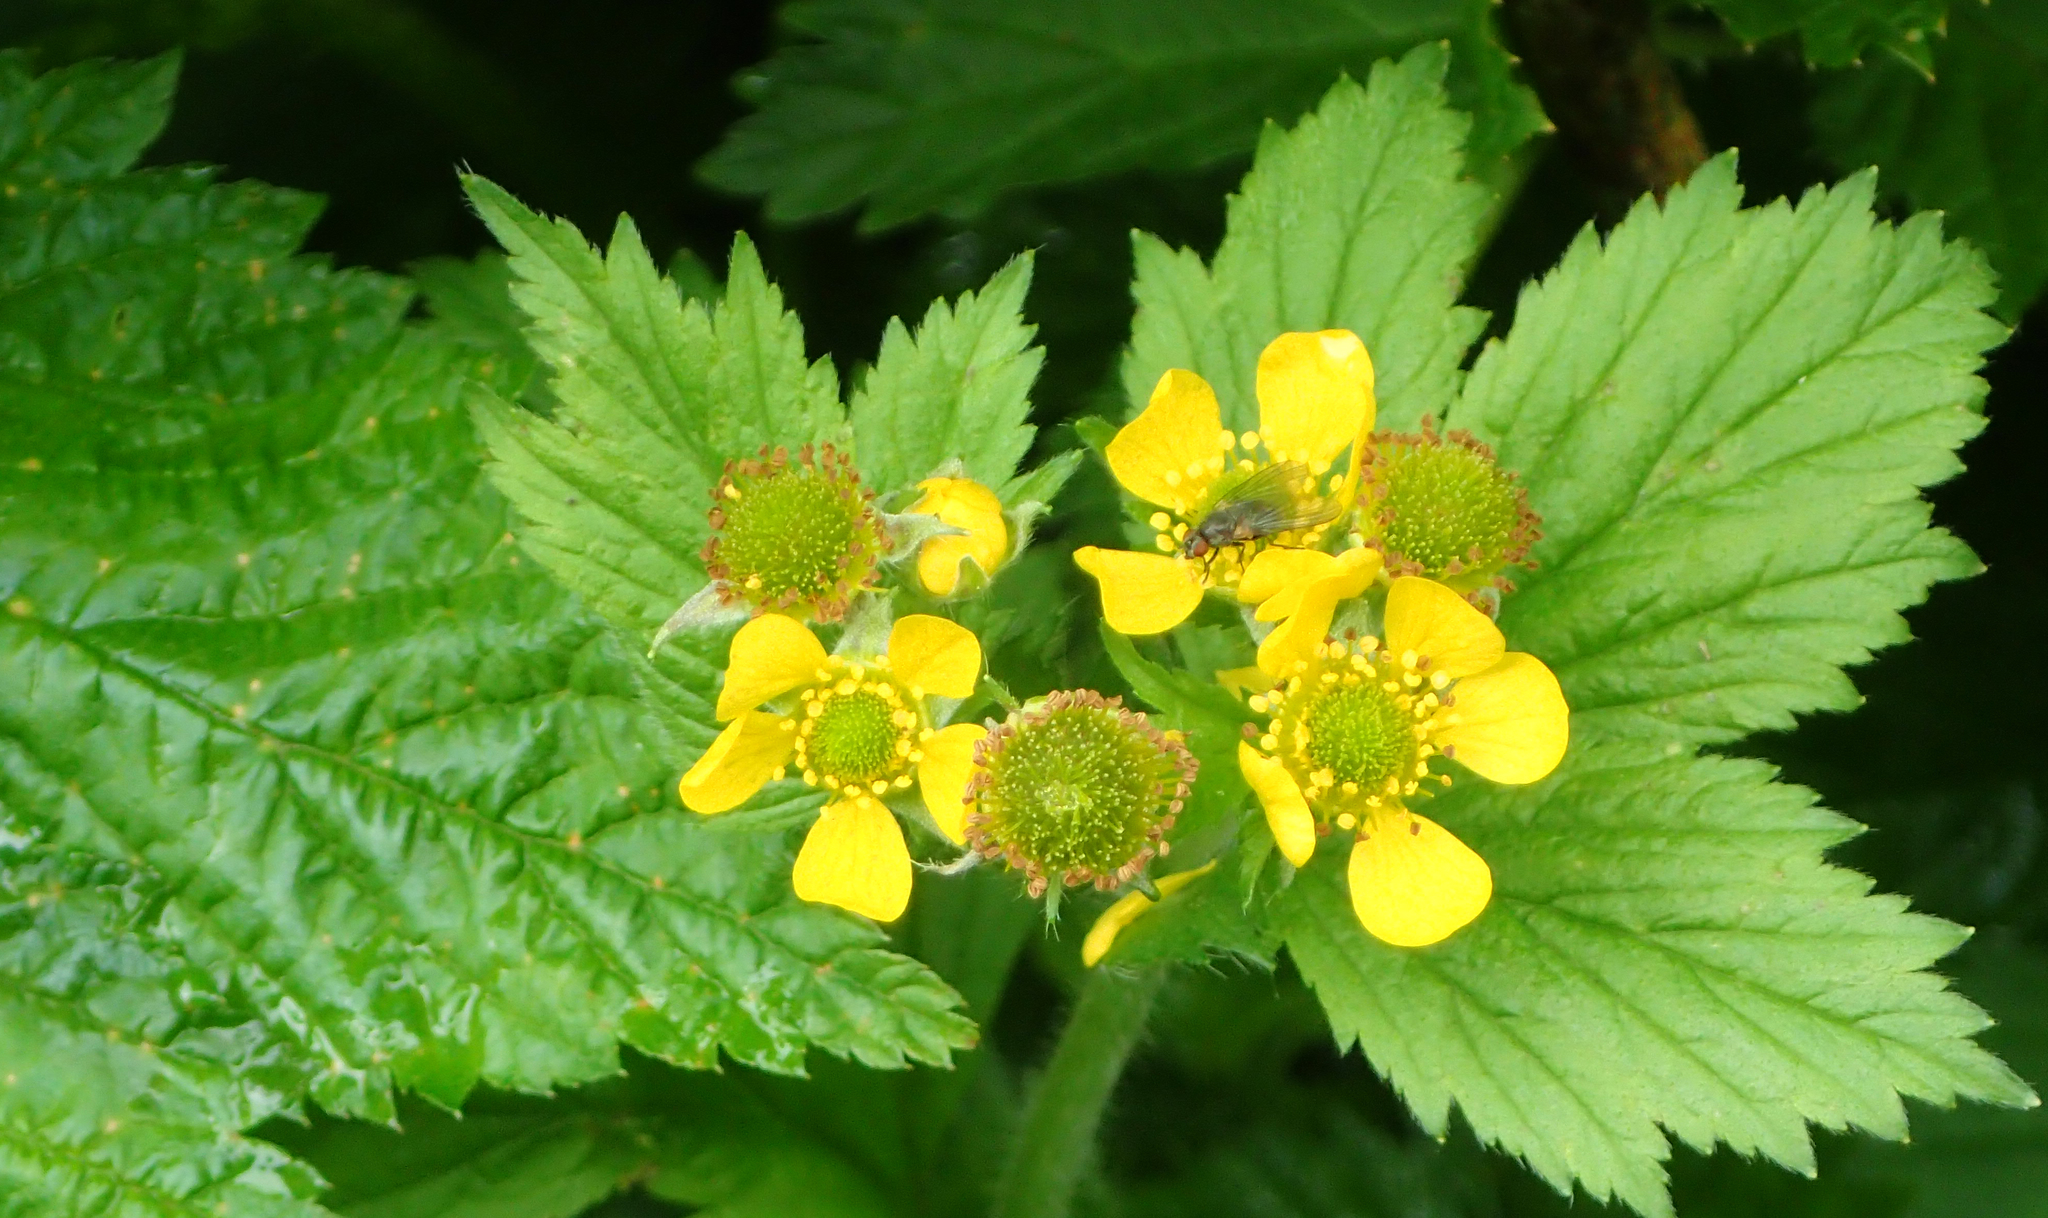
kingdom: Plantae
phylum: Tracheophyta
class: Magnoliopsida
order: Rosales
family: Rosaceae
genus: Geum
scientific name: Geum macrophyllum
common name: Large-leaved avens
